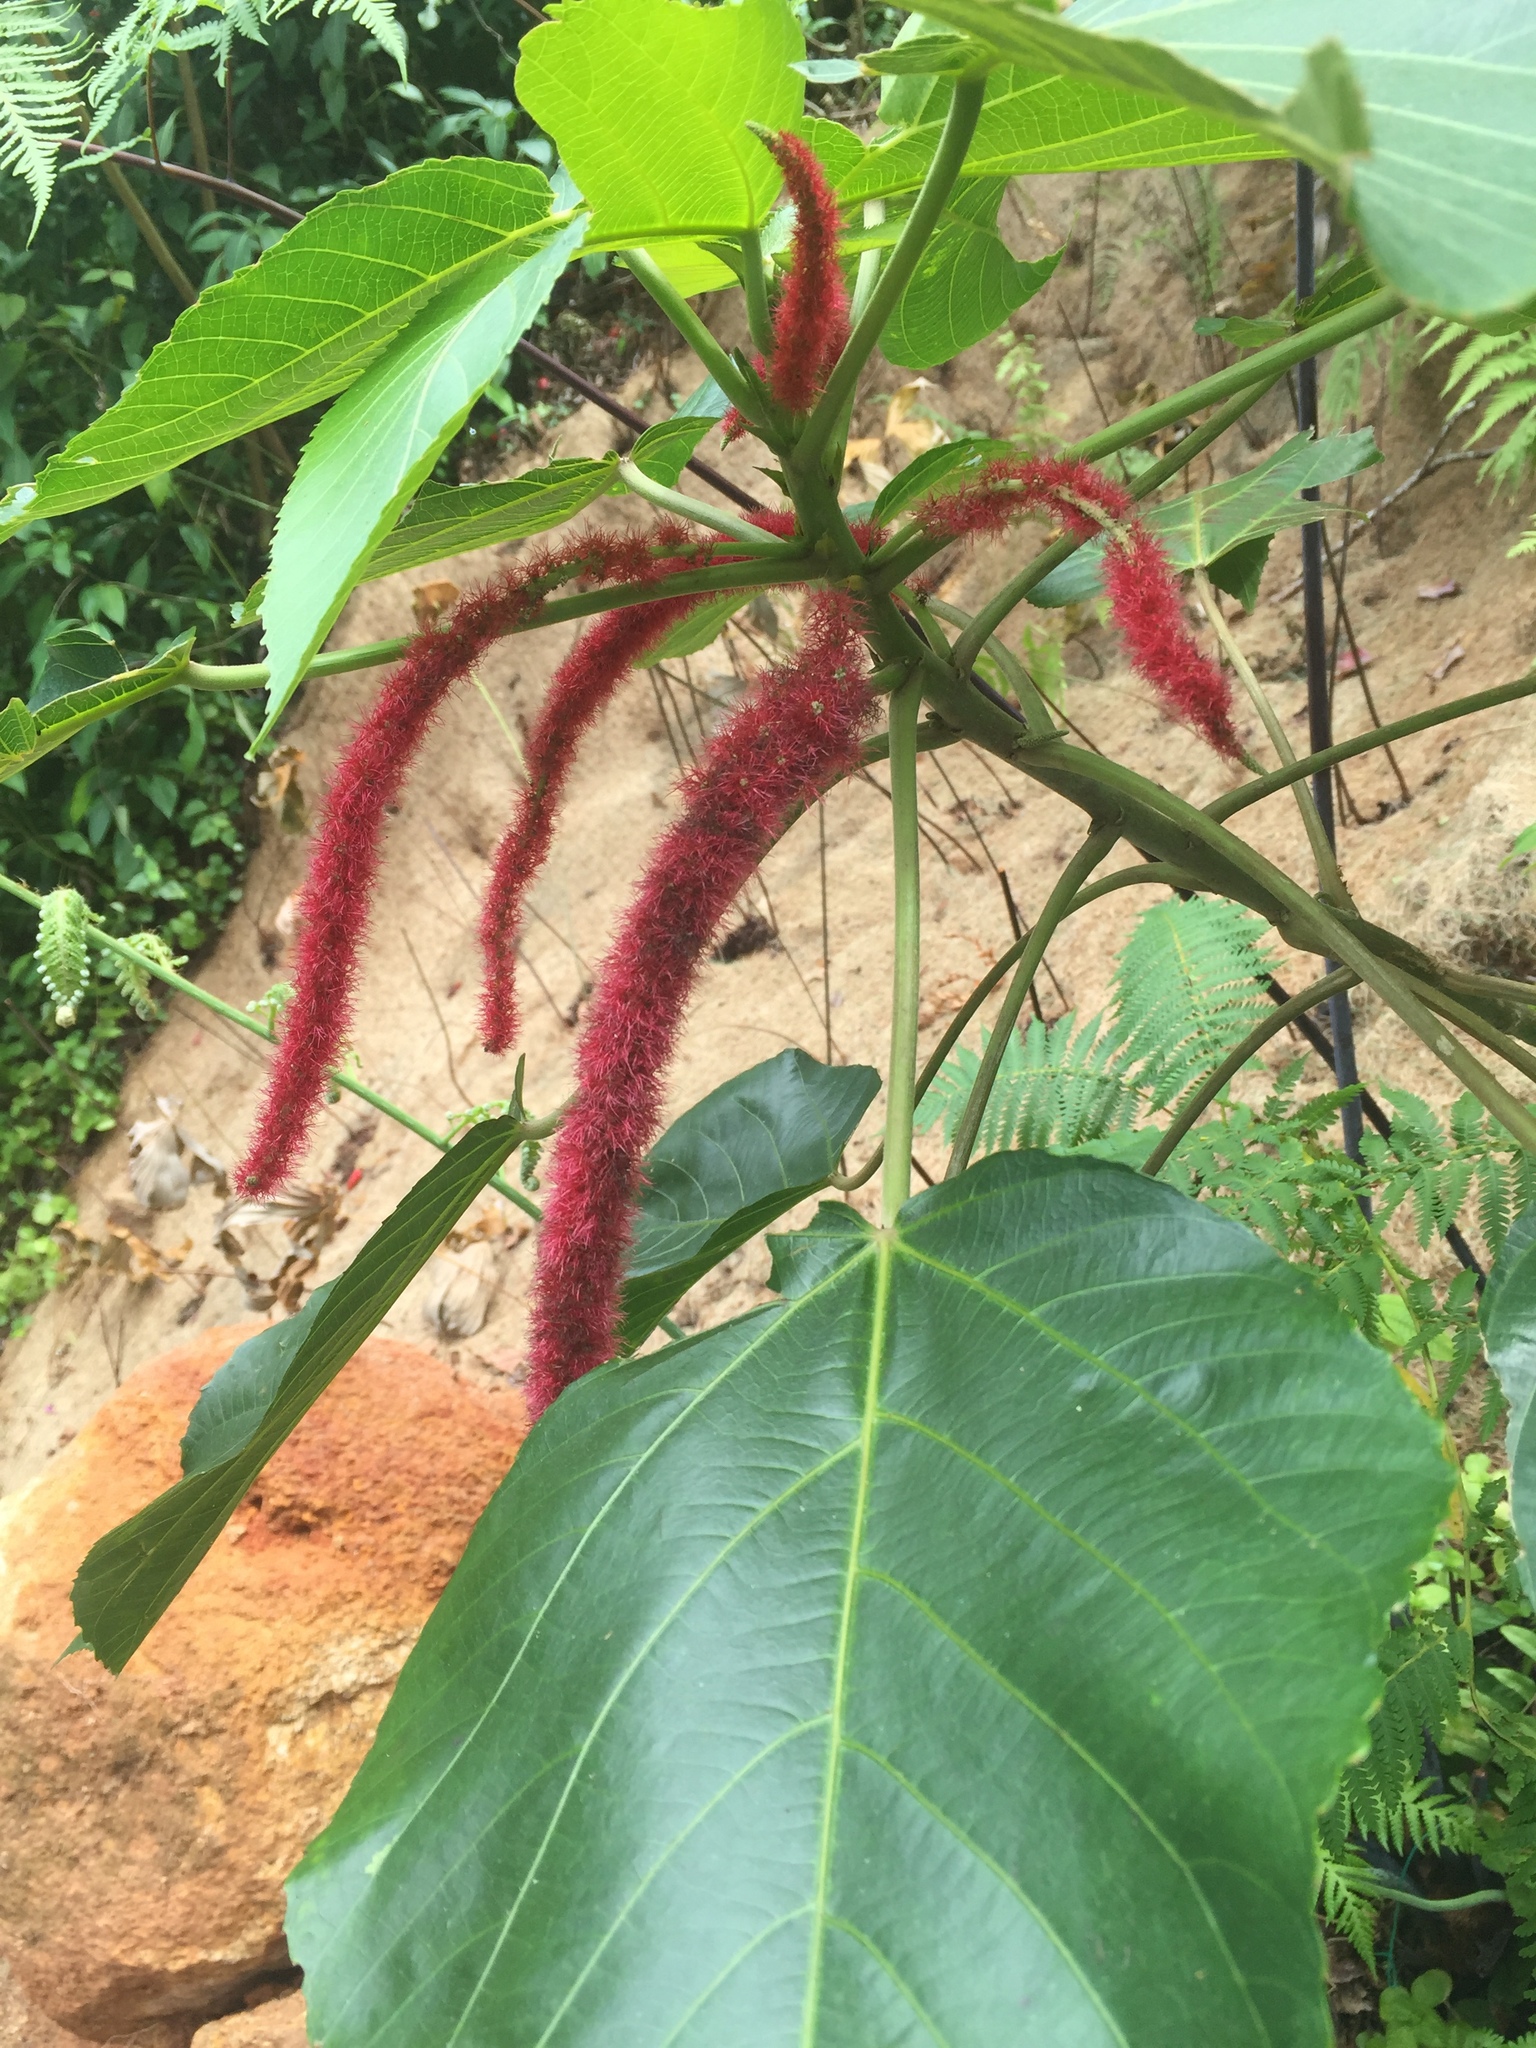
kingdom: Plantae
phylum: Tracheophyta
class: Magnoliopsida
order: Malpighiales
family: Euphorbiaceae
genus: Acalypha
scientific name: Acalypha hispida
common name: Chenilleplant
